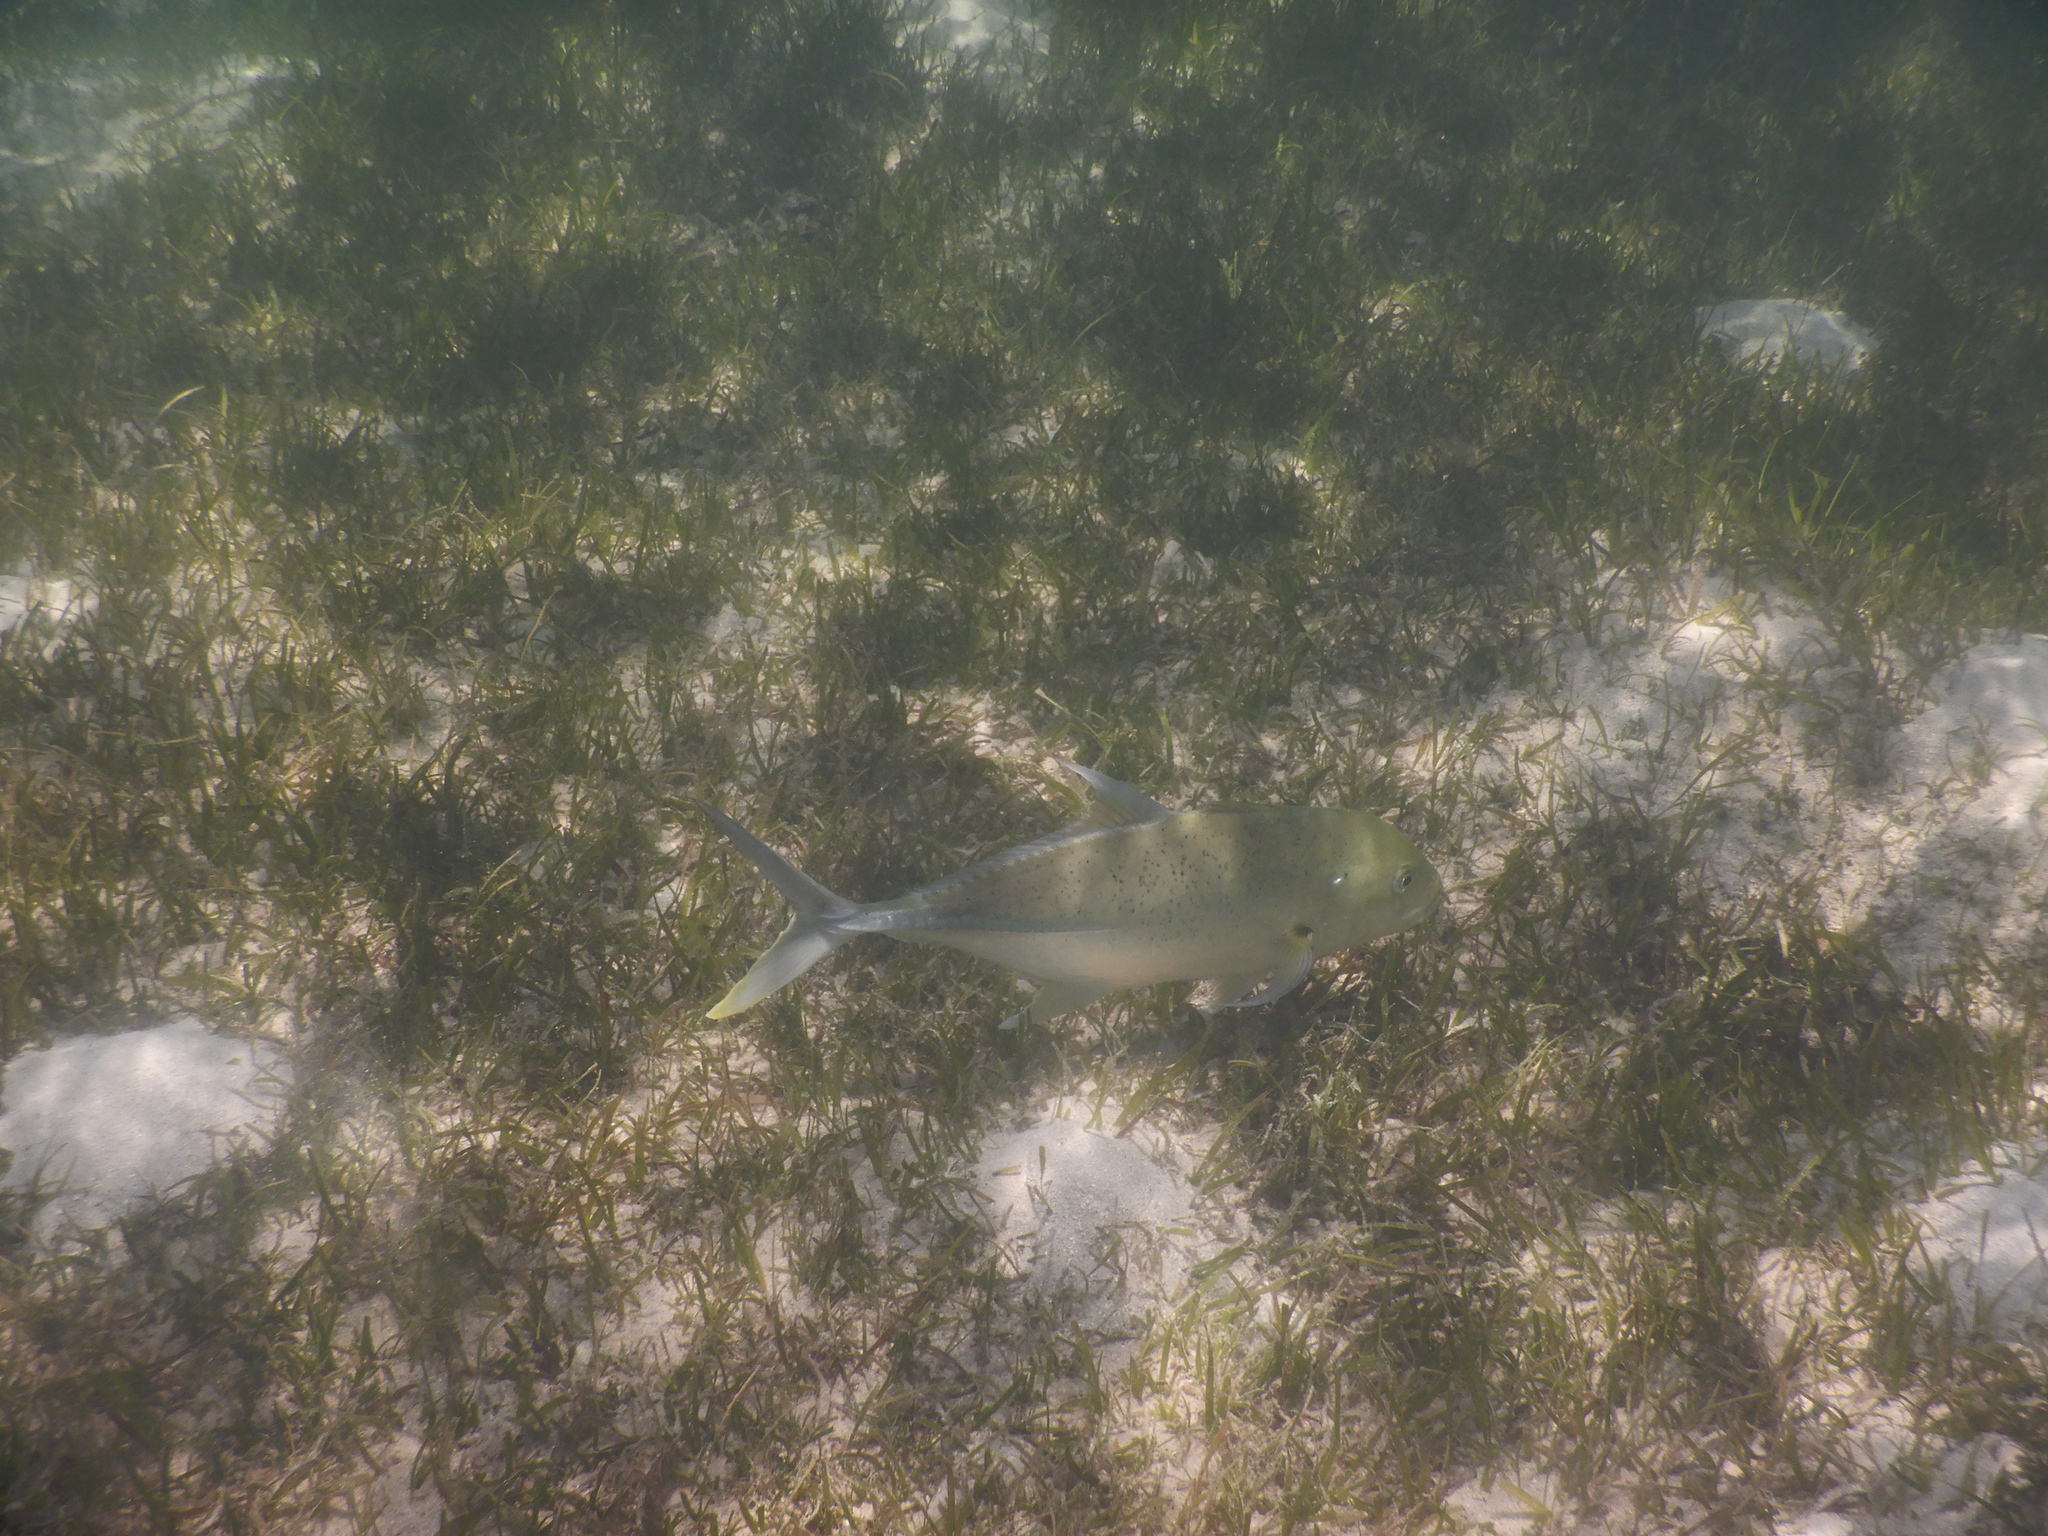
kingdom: Animalia
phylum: Chordata
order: Perciformes
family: Carangidae
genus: Caranx
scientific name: Caranx papuensis
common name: Brassy trevally
